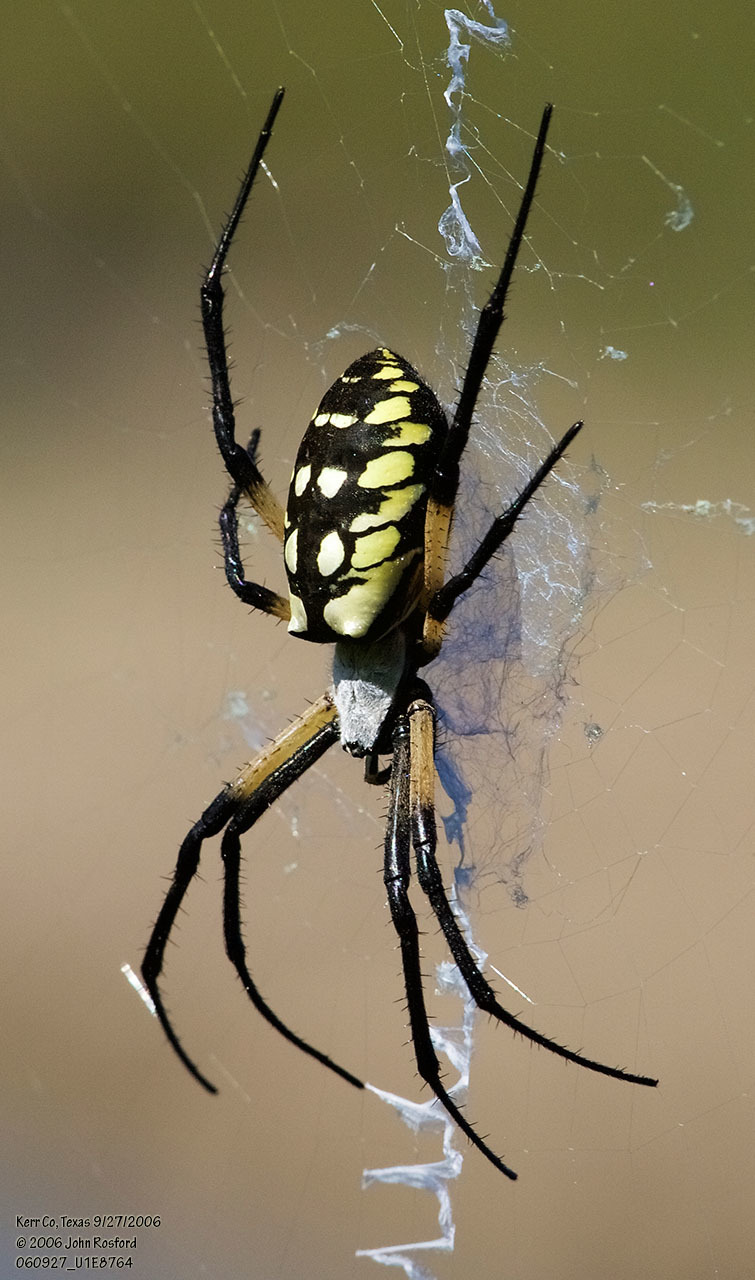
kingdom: Animalia
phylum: Arthropoda
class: Arachnida
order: Araneae
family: Araneidae
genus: Argiope
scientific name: Argiope aurantia
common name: Orb weavers
